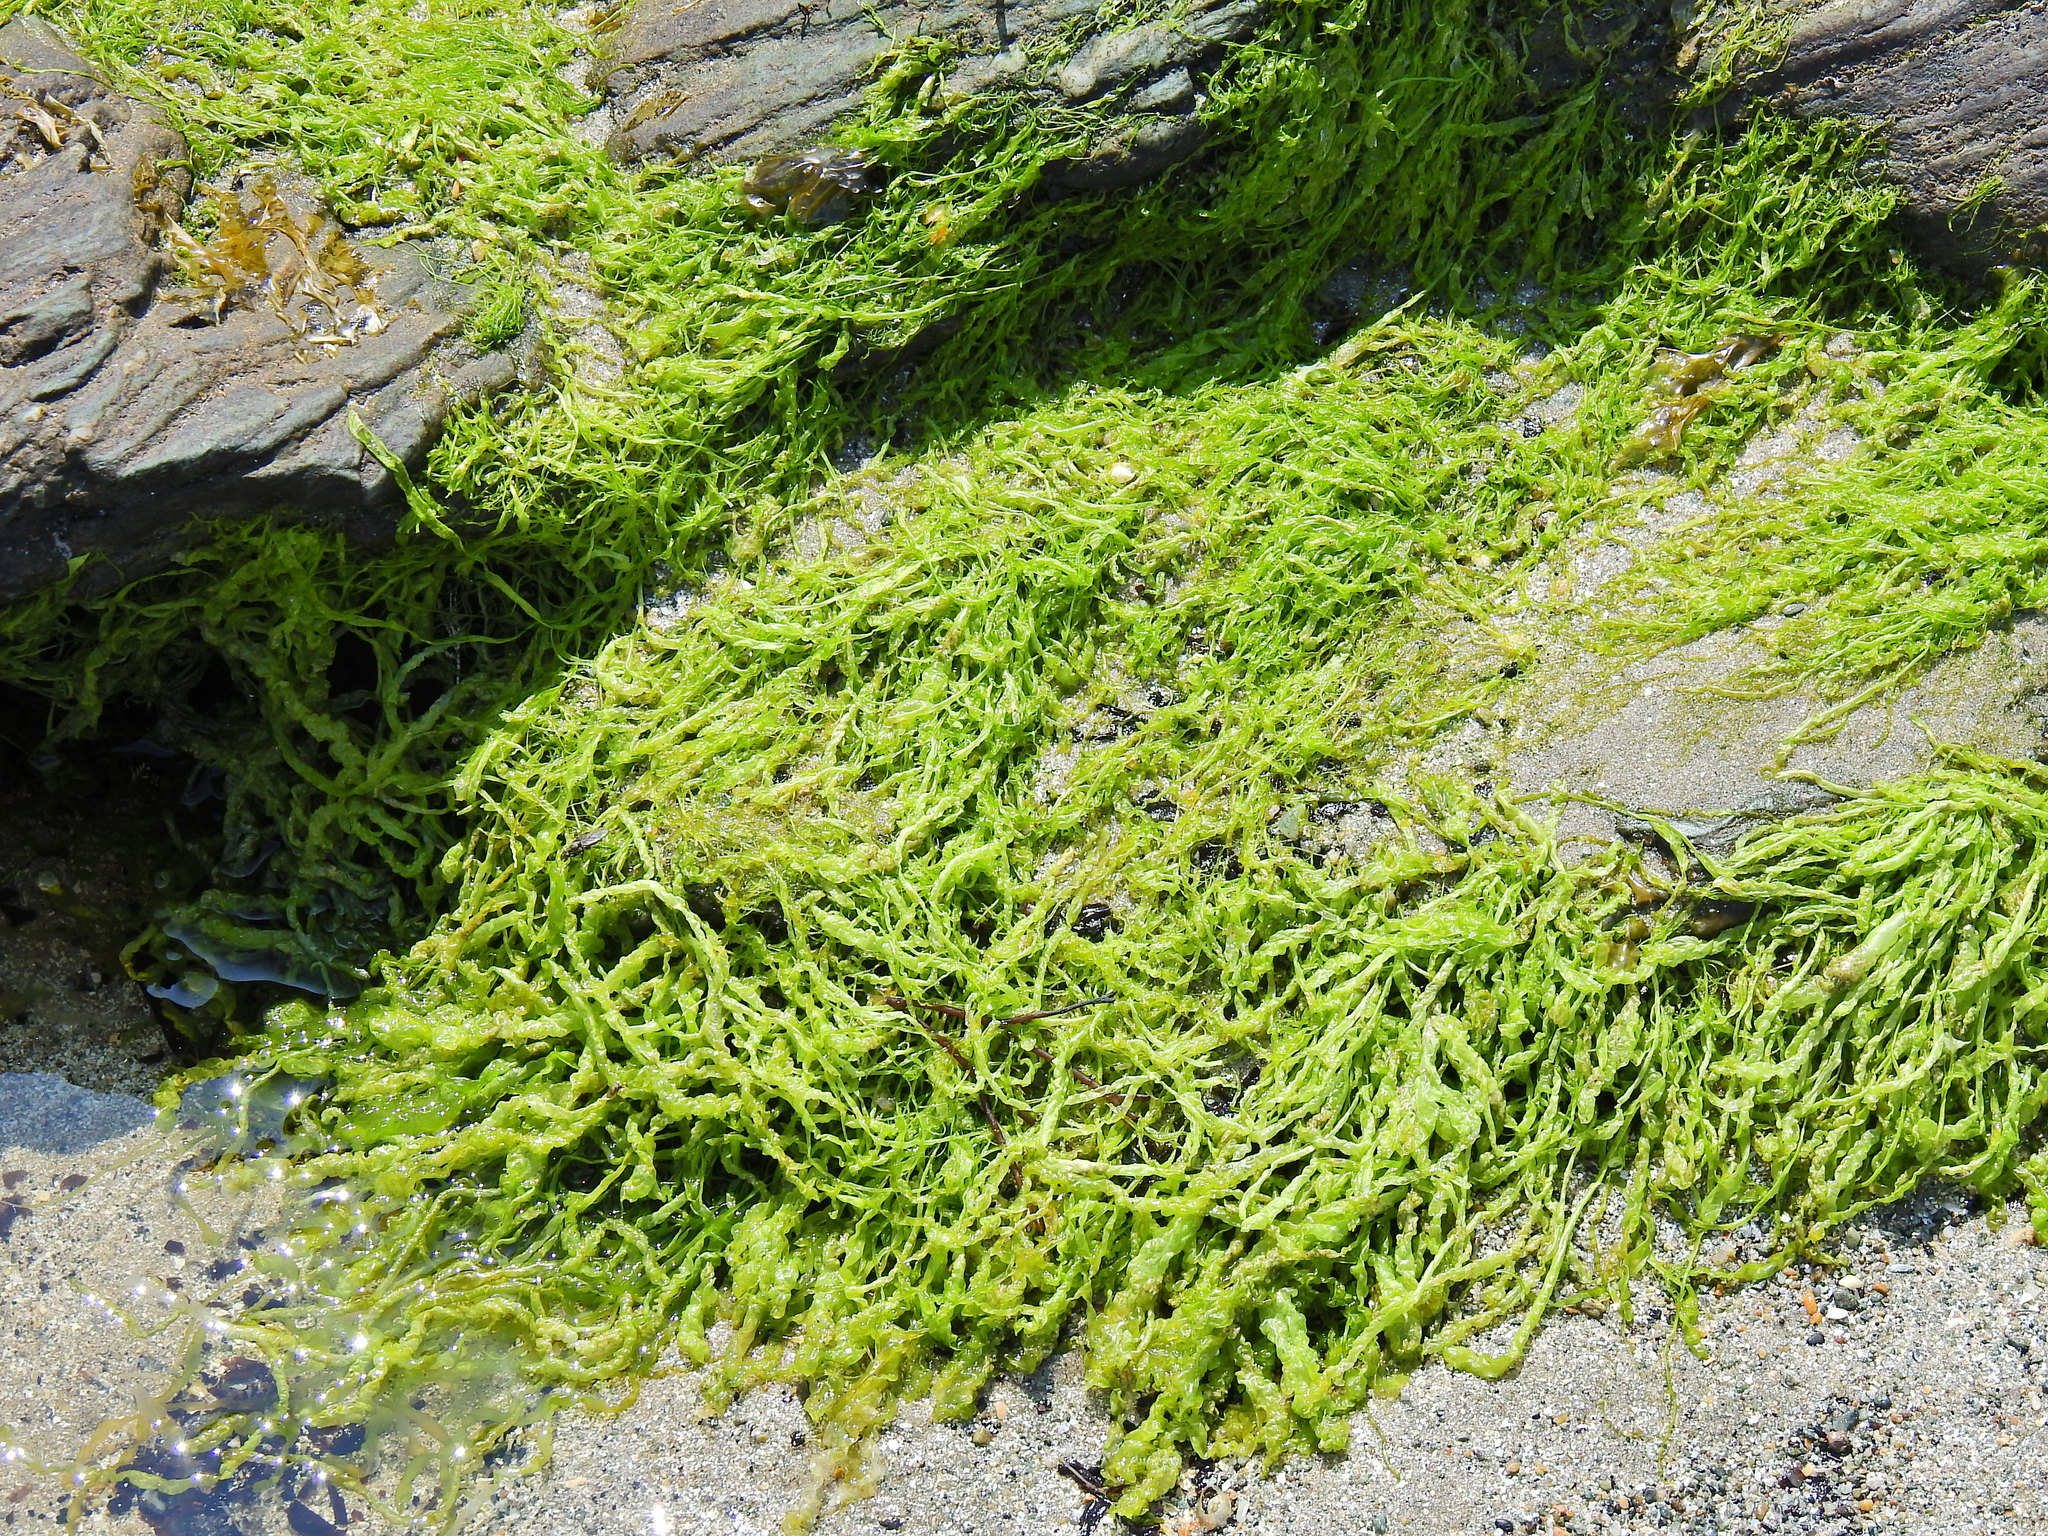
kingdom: Plantae
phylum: Chlorophyta
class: Ulvophyceae
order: Ulvales
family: Ulvaceae
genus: Ulva
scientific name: Ulva intestinalis
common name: Gut weed
